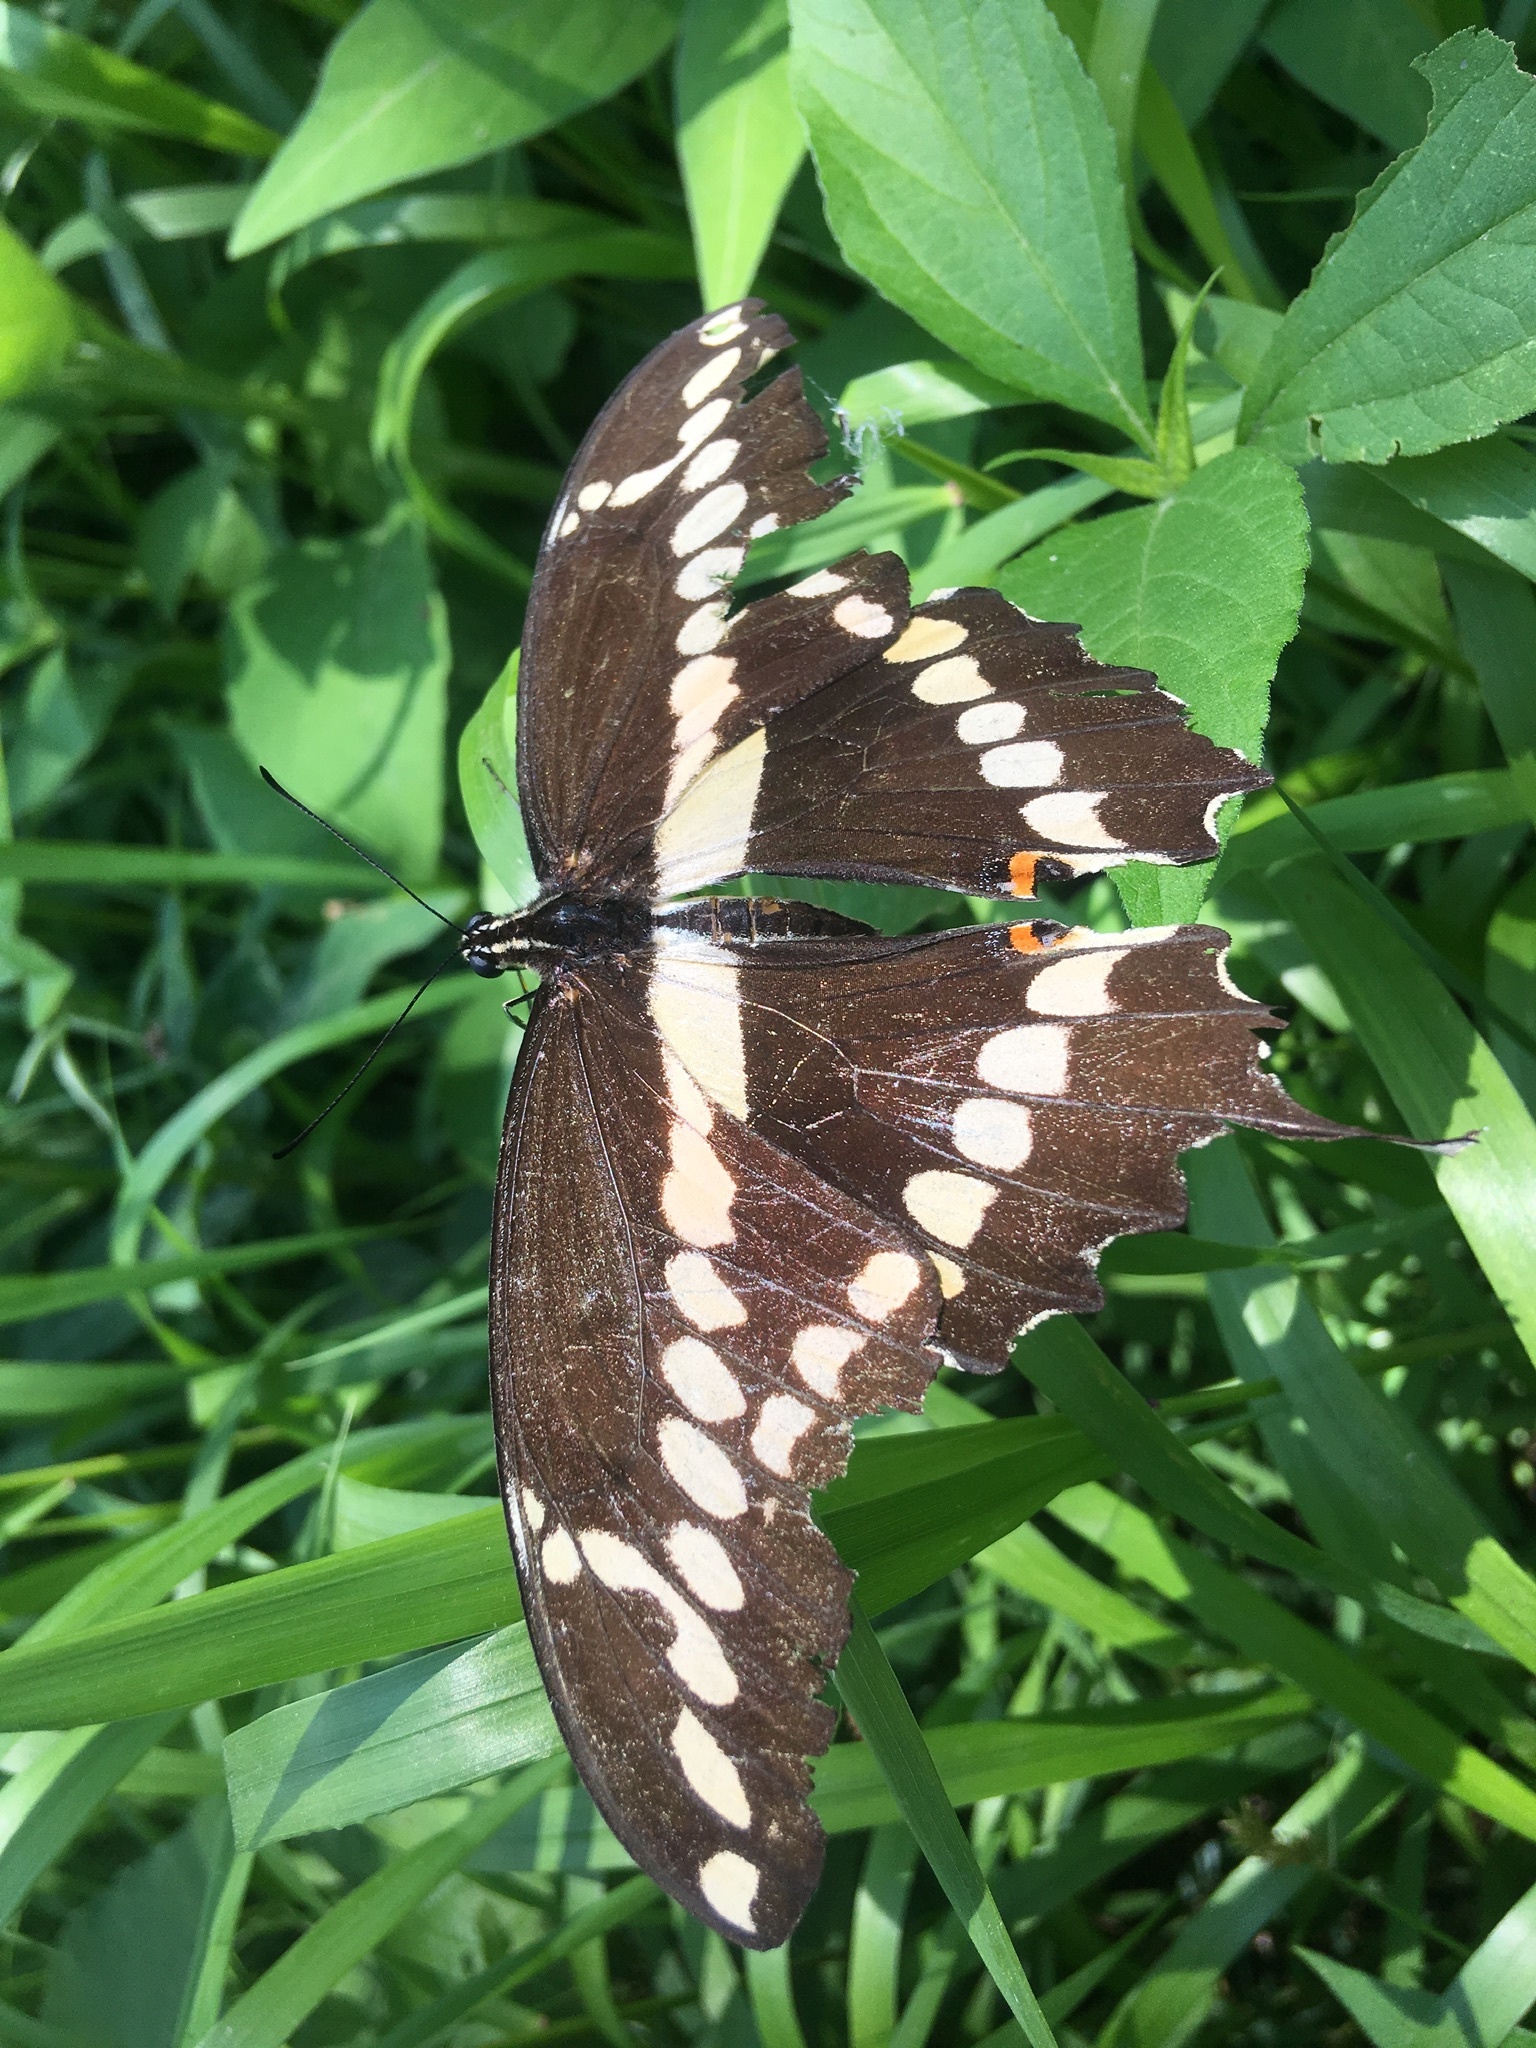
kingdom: Animalia
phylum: Arthropoda
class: Insecta
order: Lepidoptera
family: Papilionidae
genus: Papilio
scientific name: Papilio cresphontes
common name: Giant swallowtail
